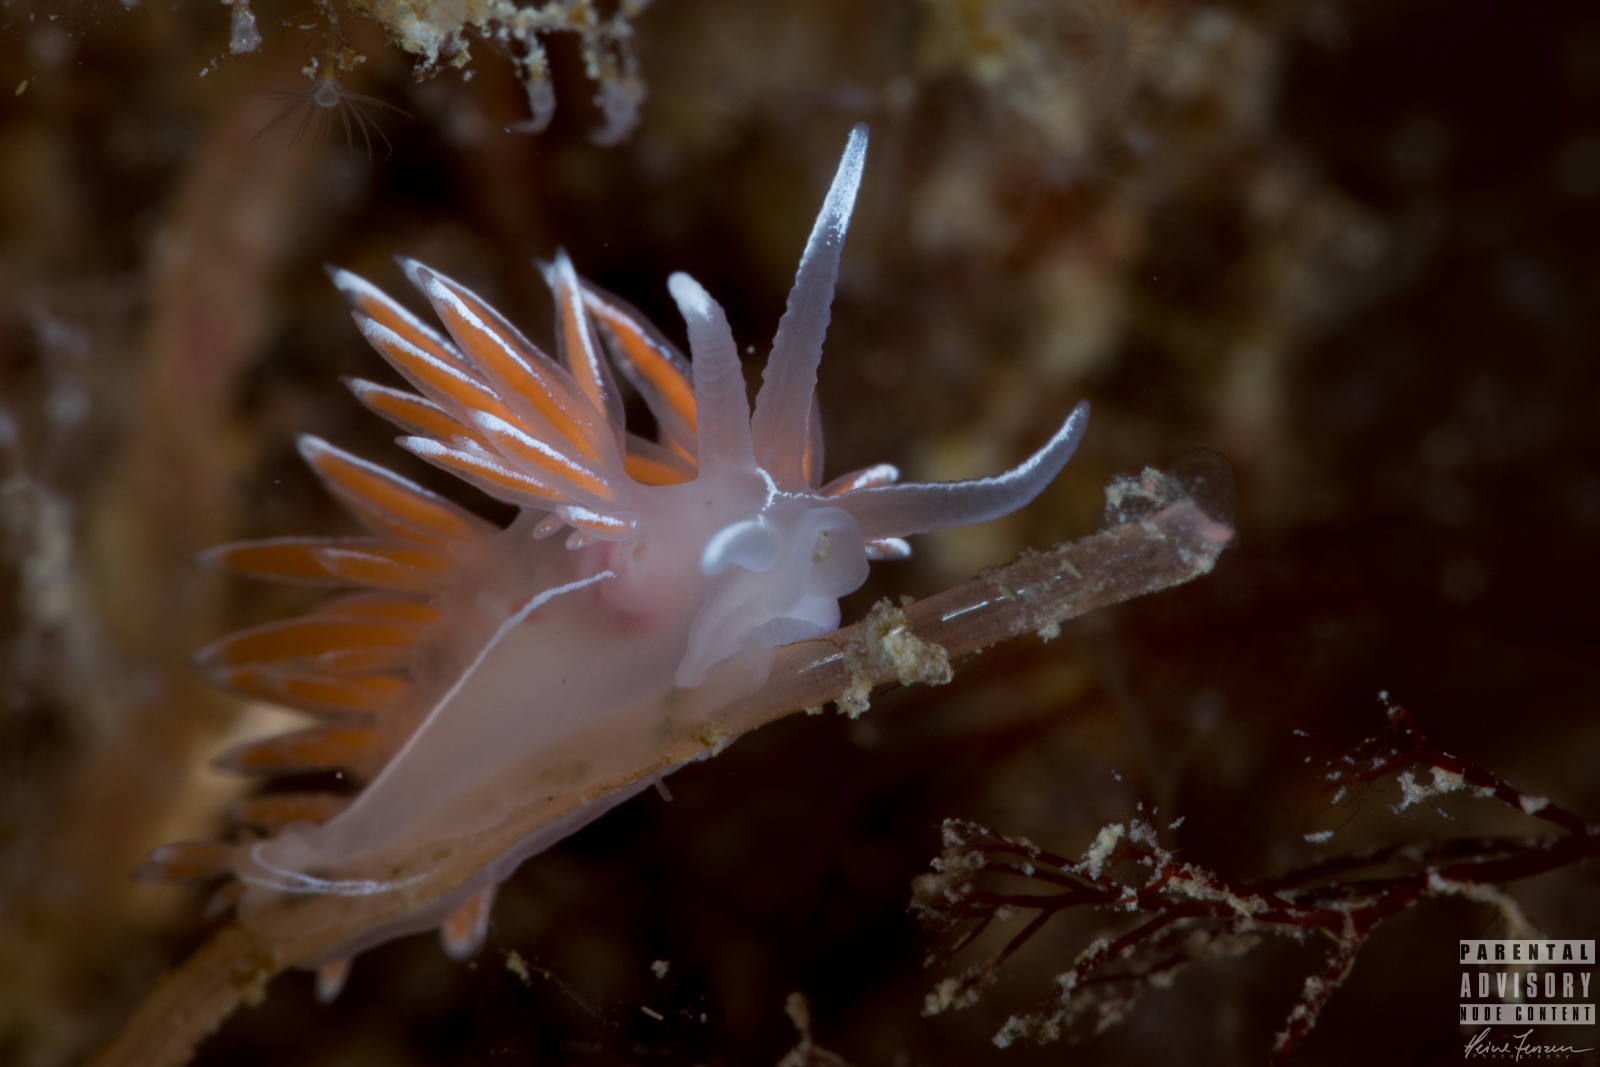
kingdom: Animalia
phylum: Mollusca
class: Gastropoda
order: Nudibranchia
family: Coryphellidae
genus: Coryphella
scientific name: Coryphella lineata
